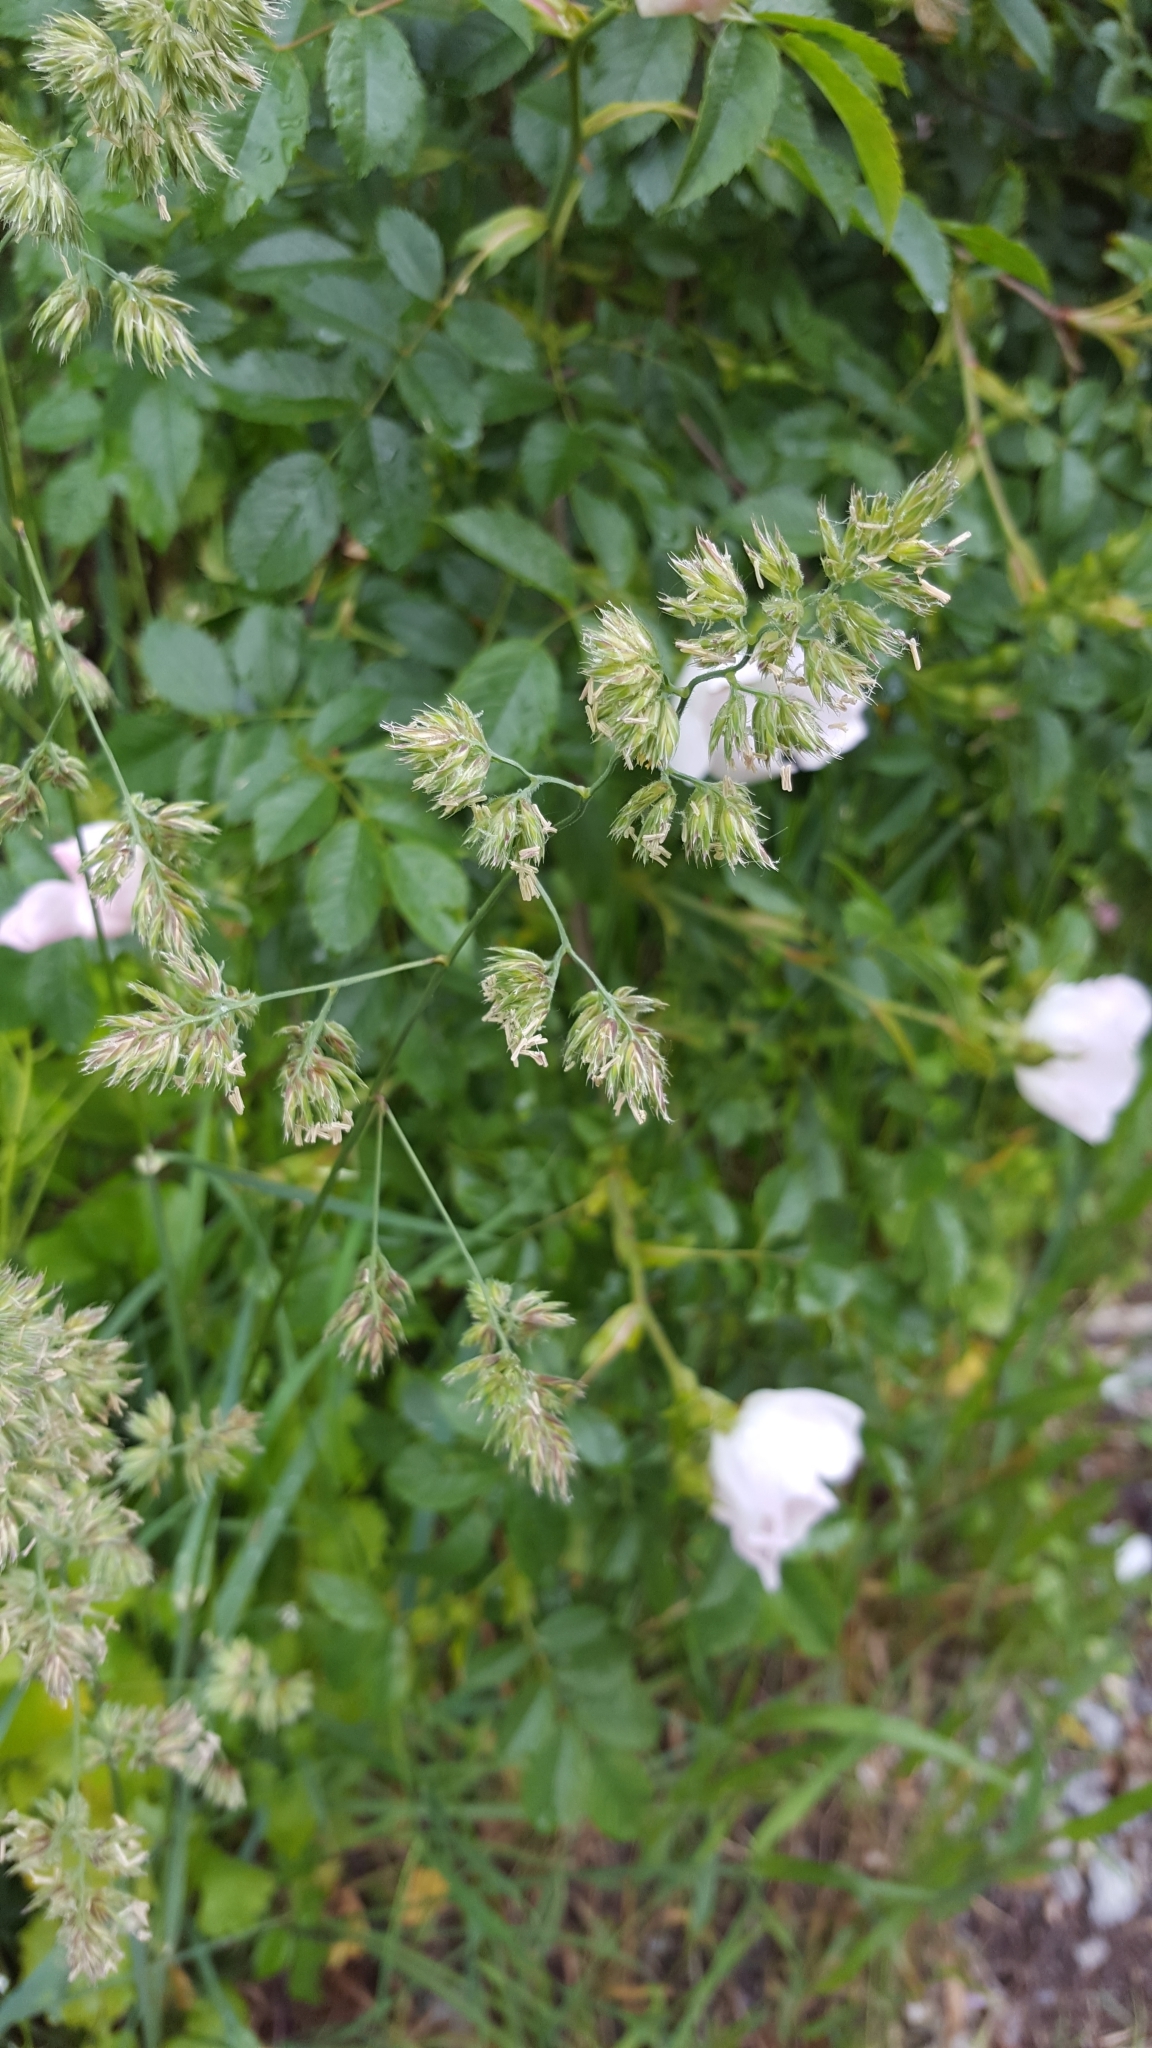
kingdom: Plantae
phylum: Tracheophyta
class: Liliopsida
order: Poales
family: Poaceae
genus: Dactylis
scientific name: Dactylis glomerata
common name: Orchardgrass
